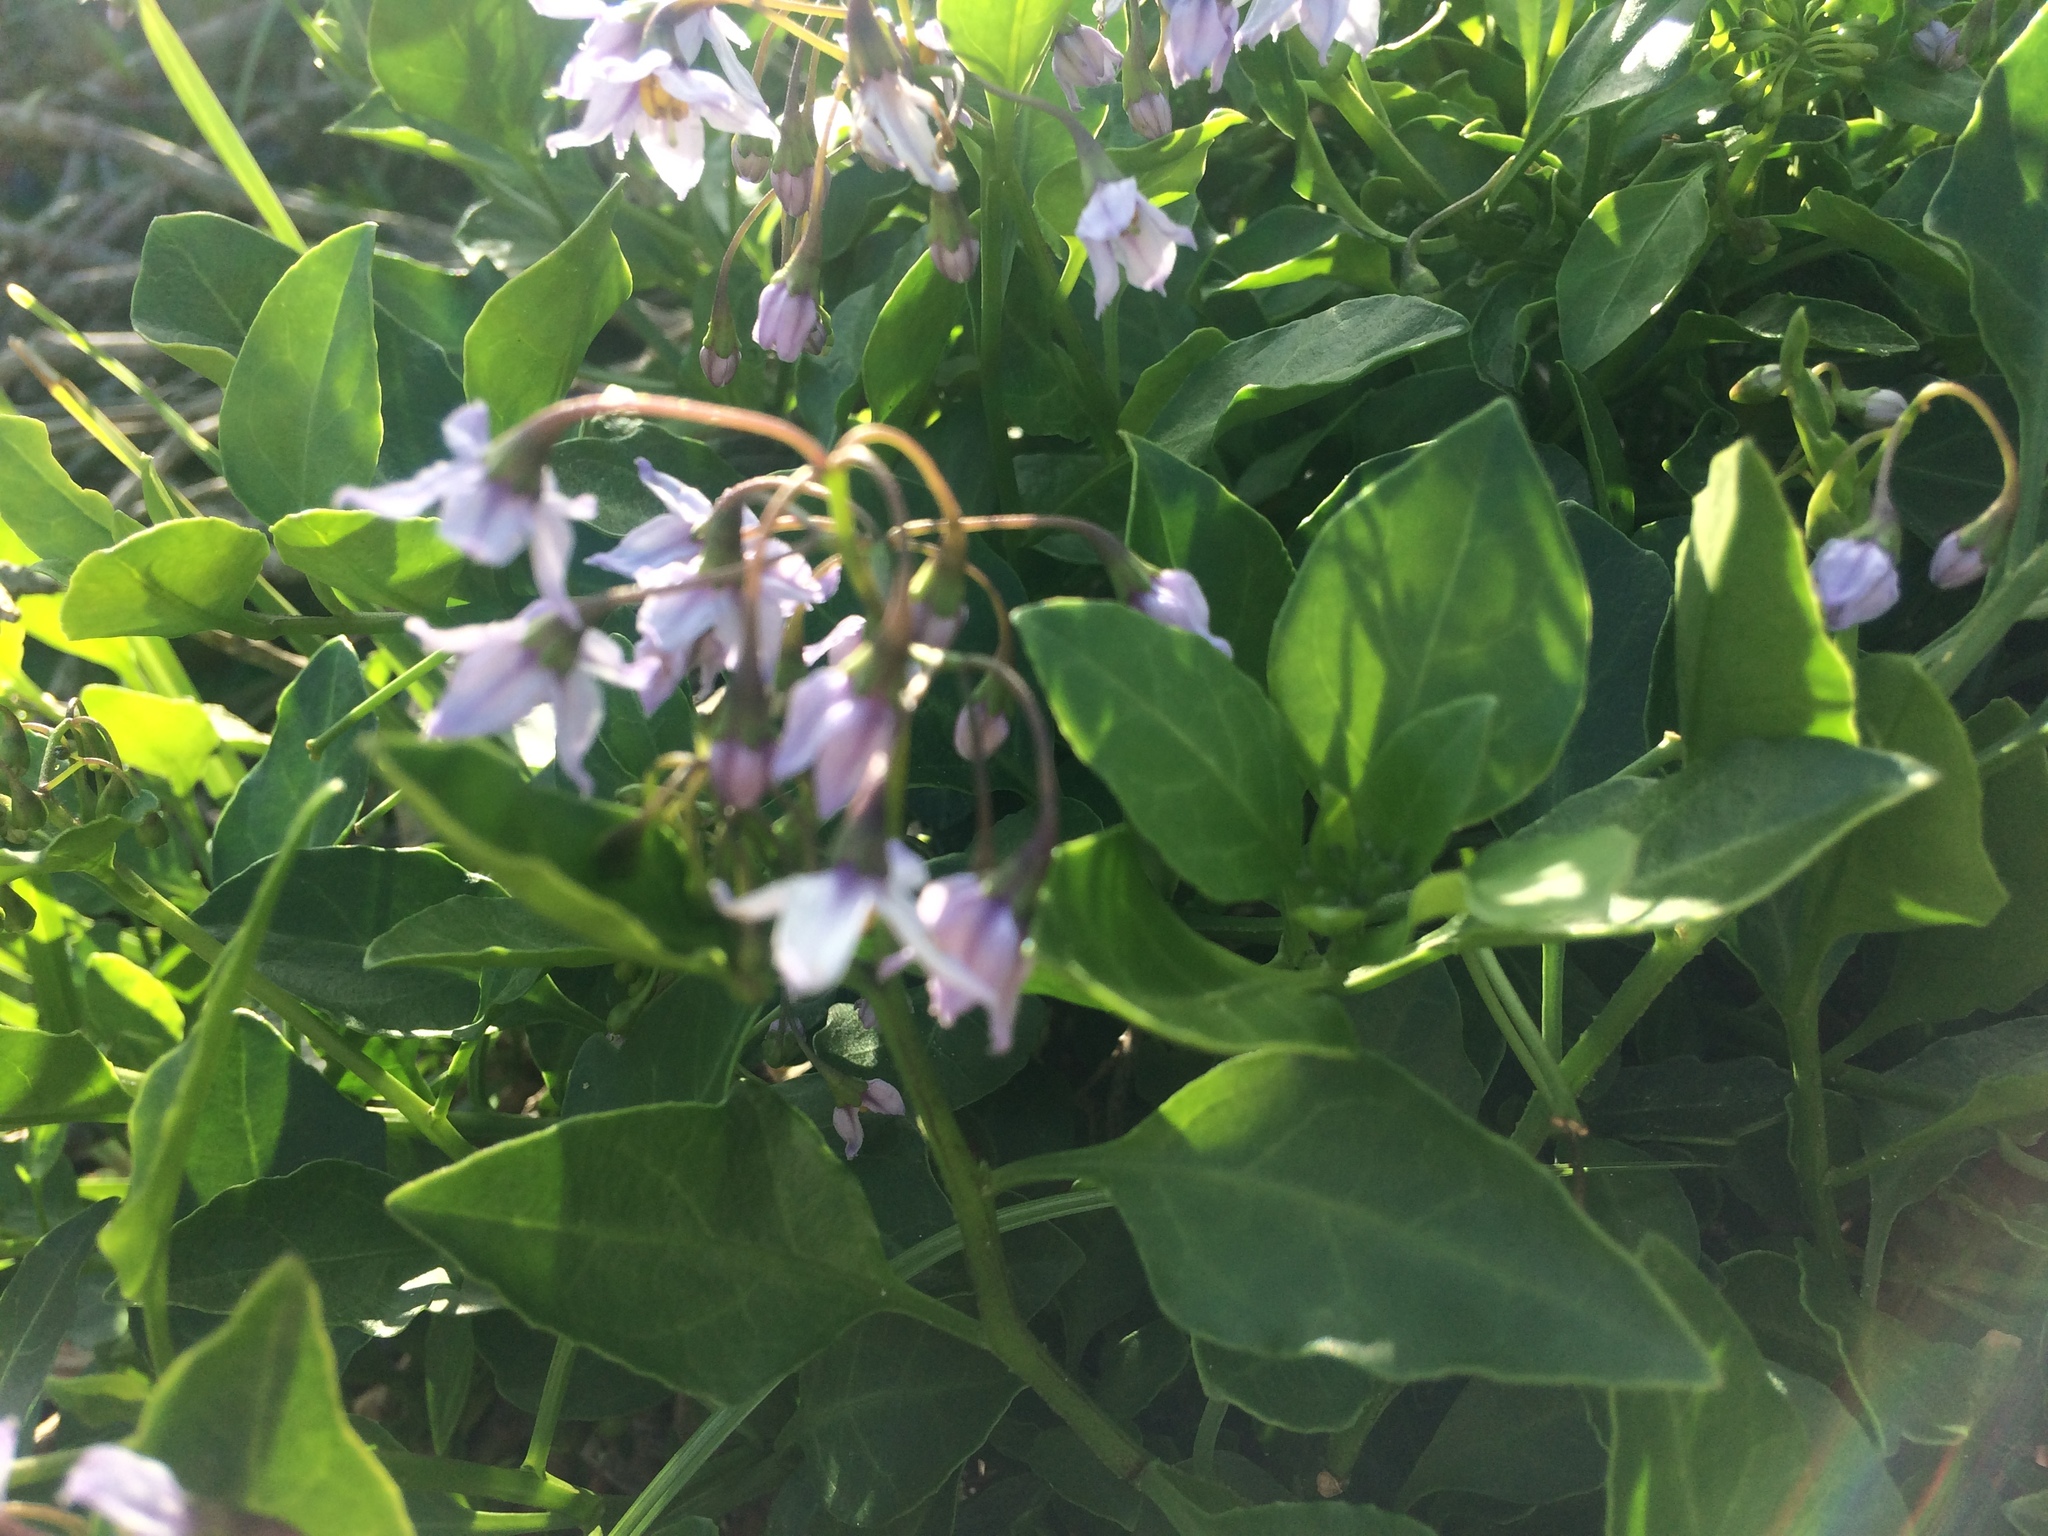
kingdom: Plantae
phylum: Tracheophyta
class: Magnoliopsida
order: Solanales
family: Solanaceae
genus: Solanum
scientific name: Solanum africanum
